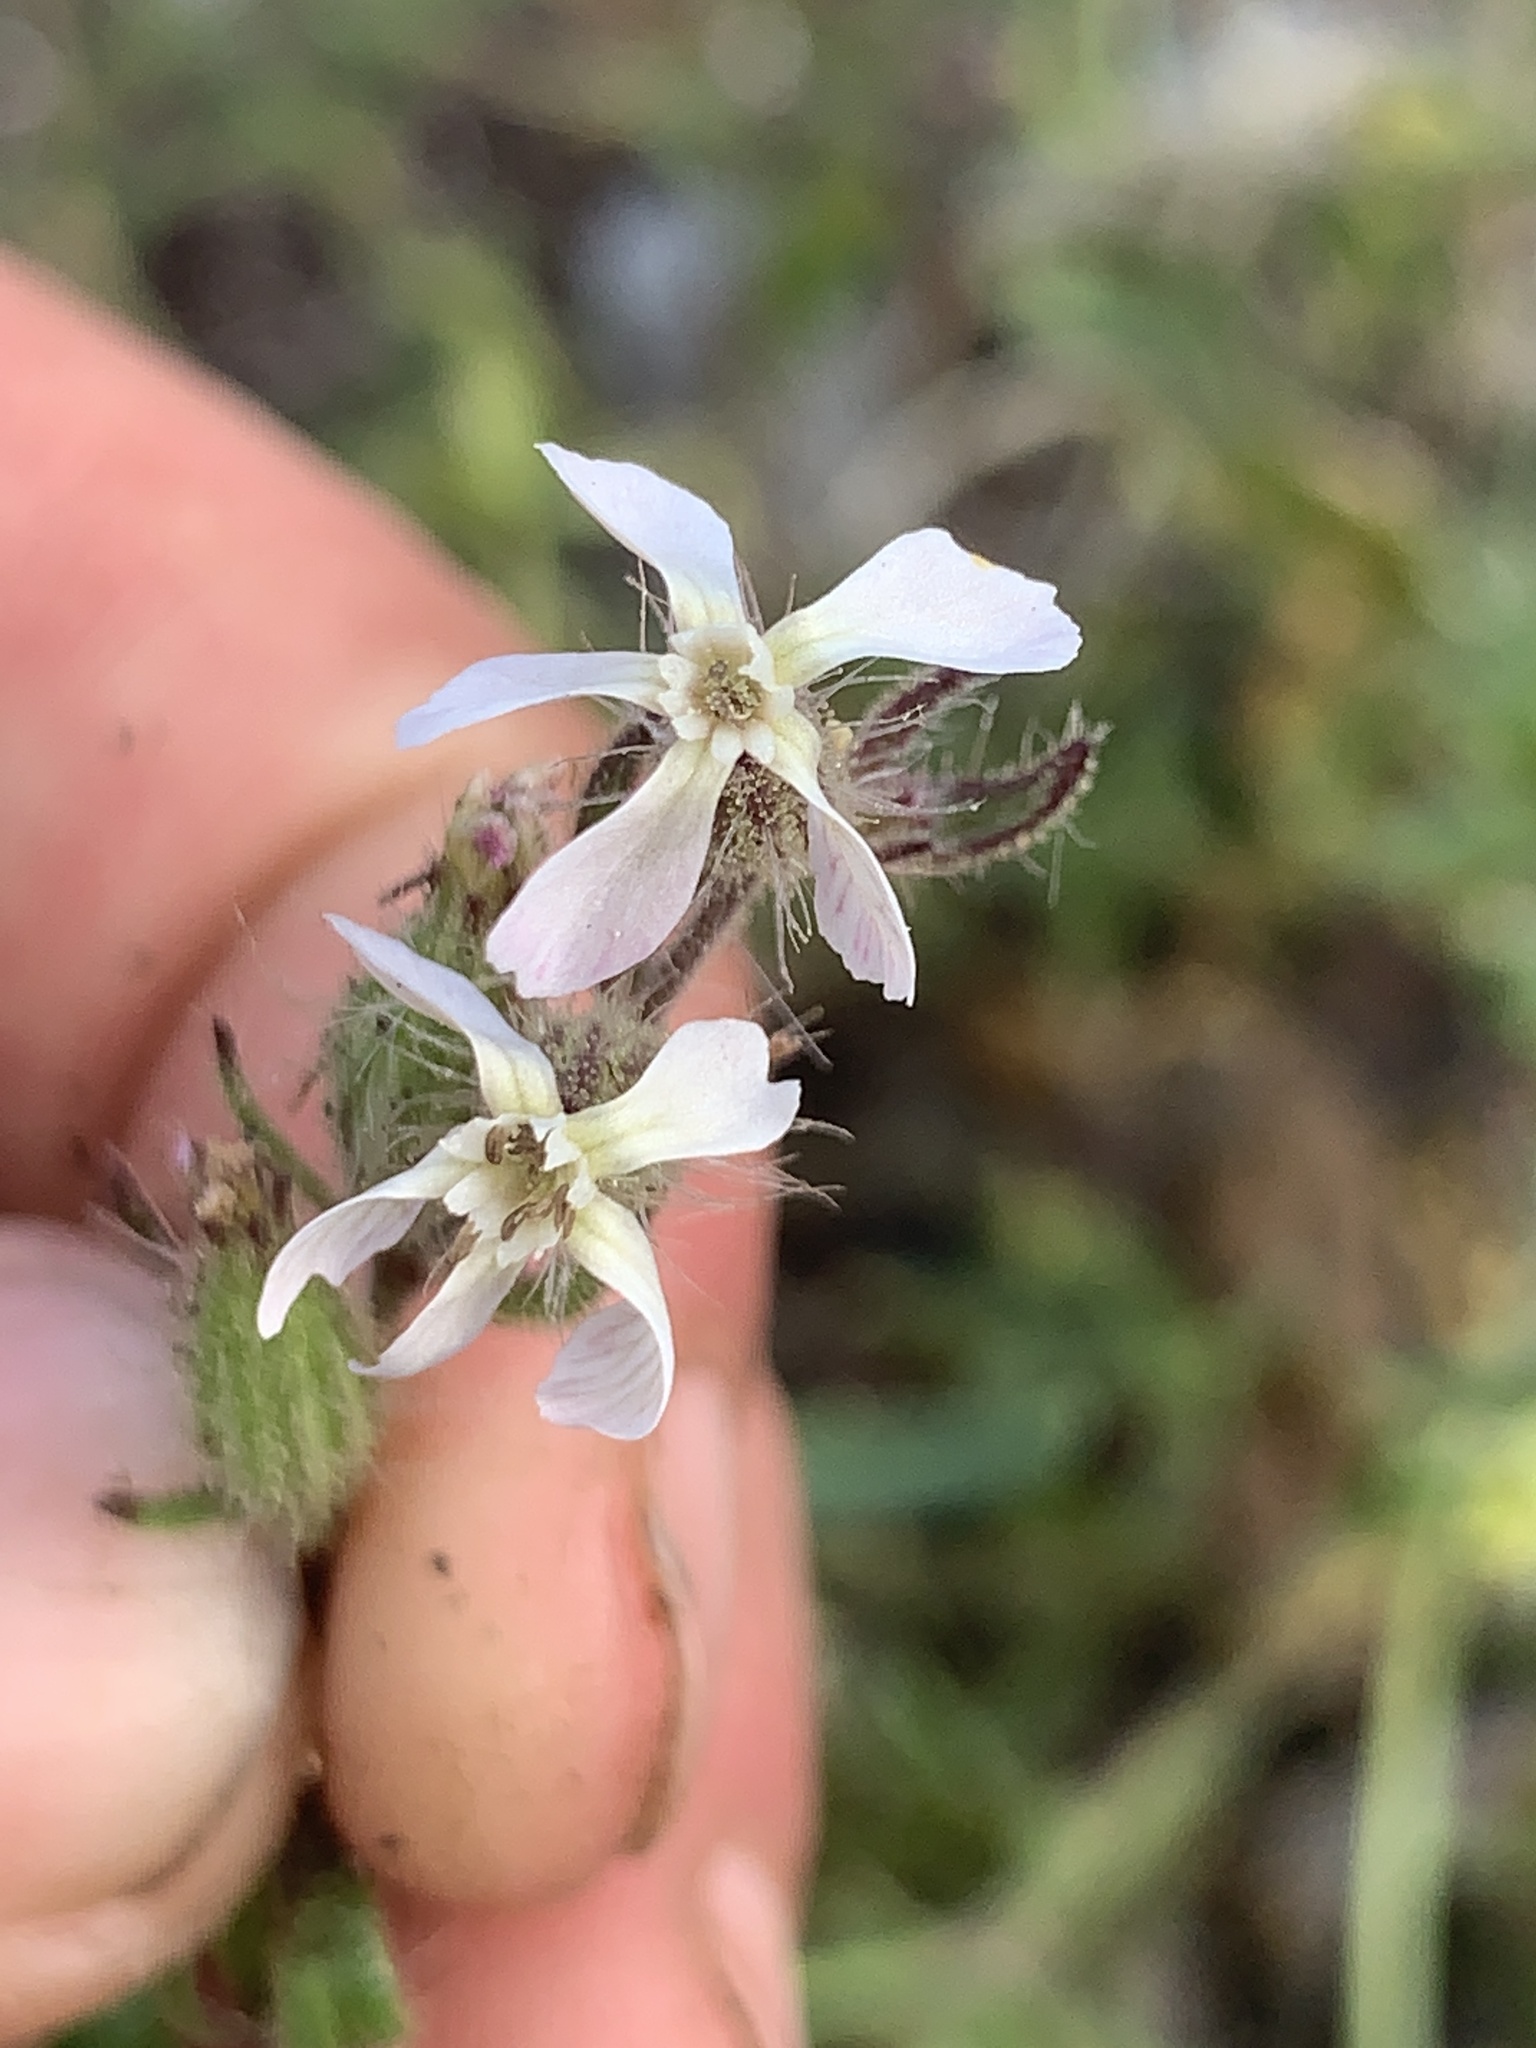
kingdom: Plantae
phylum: Tracheophyta
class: Magnoliopsida
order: Caryophyllales
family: Caryophyllaceae
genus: Silene
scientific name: Silene gallica
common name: Small-flowered catchfly
